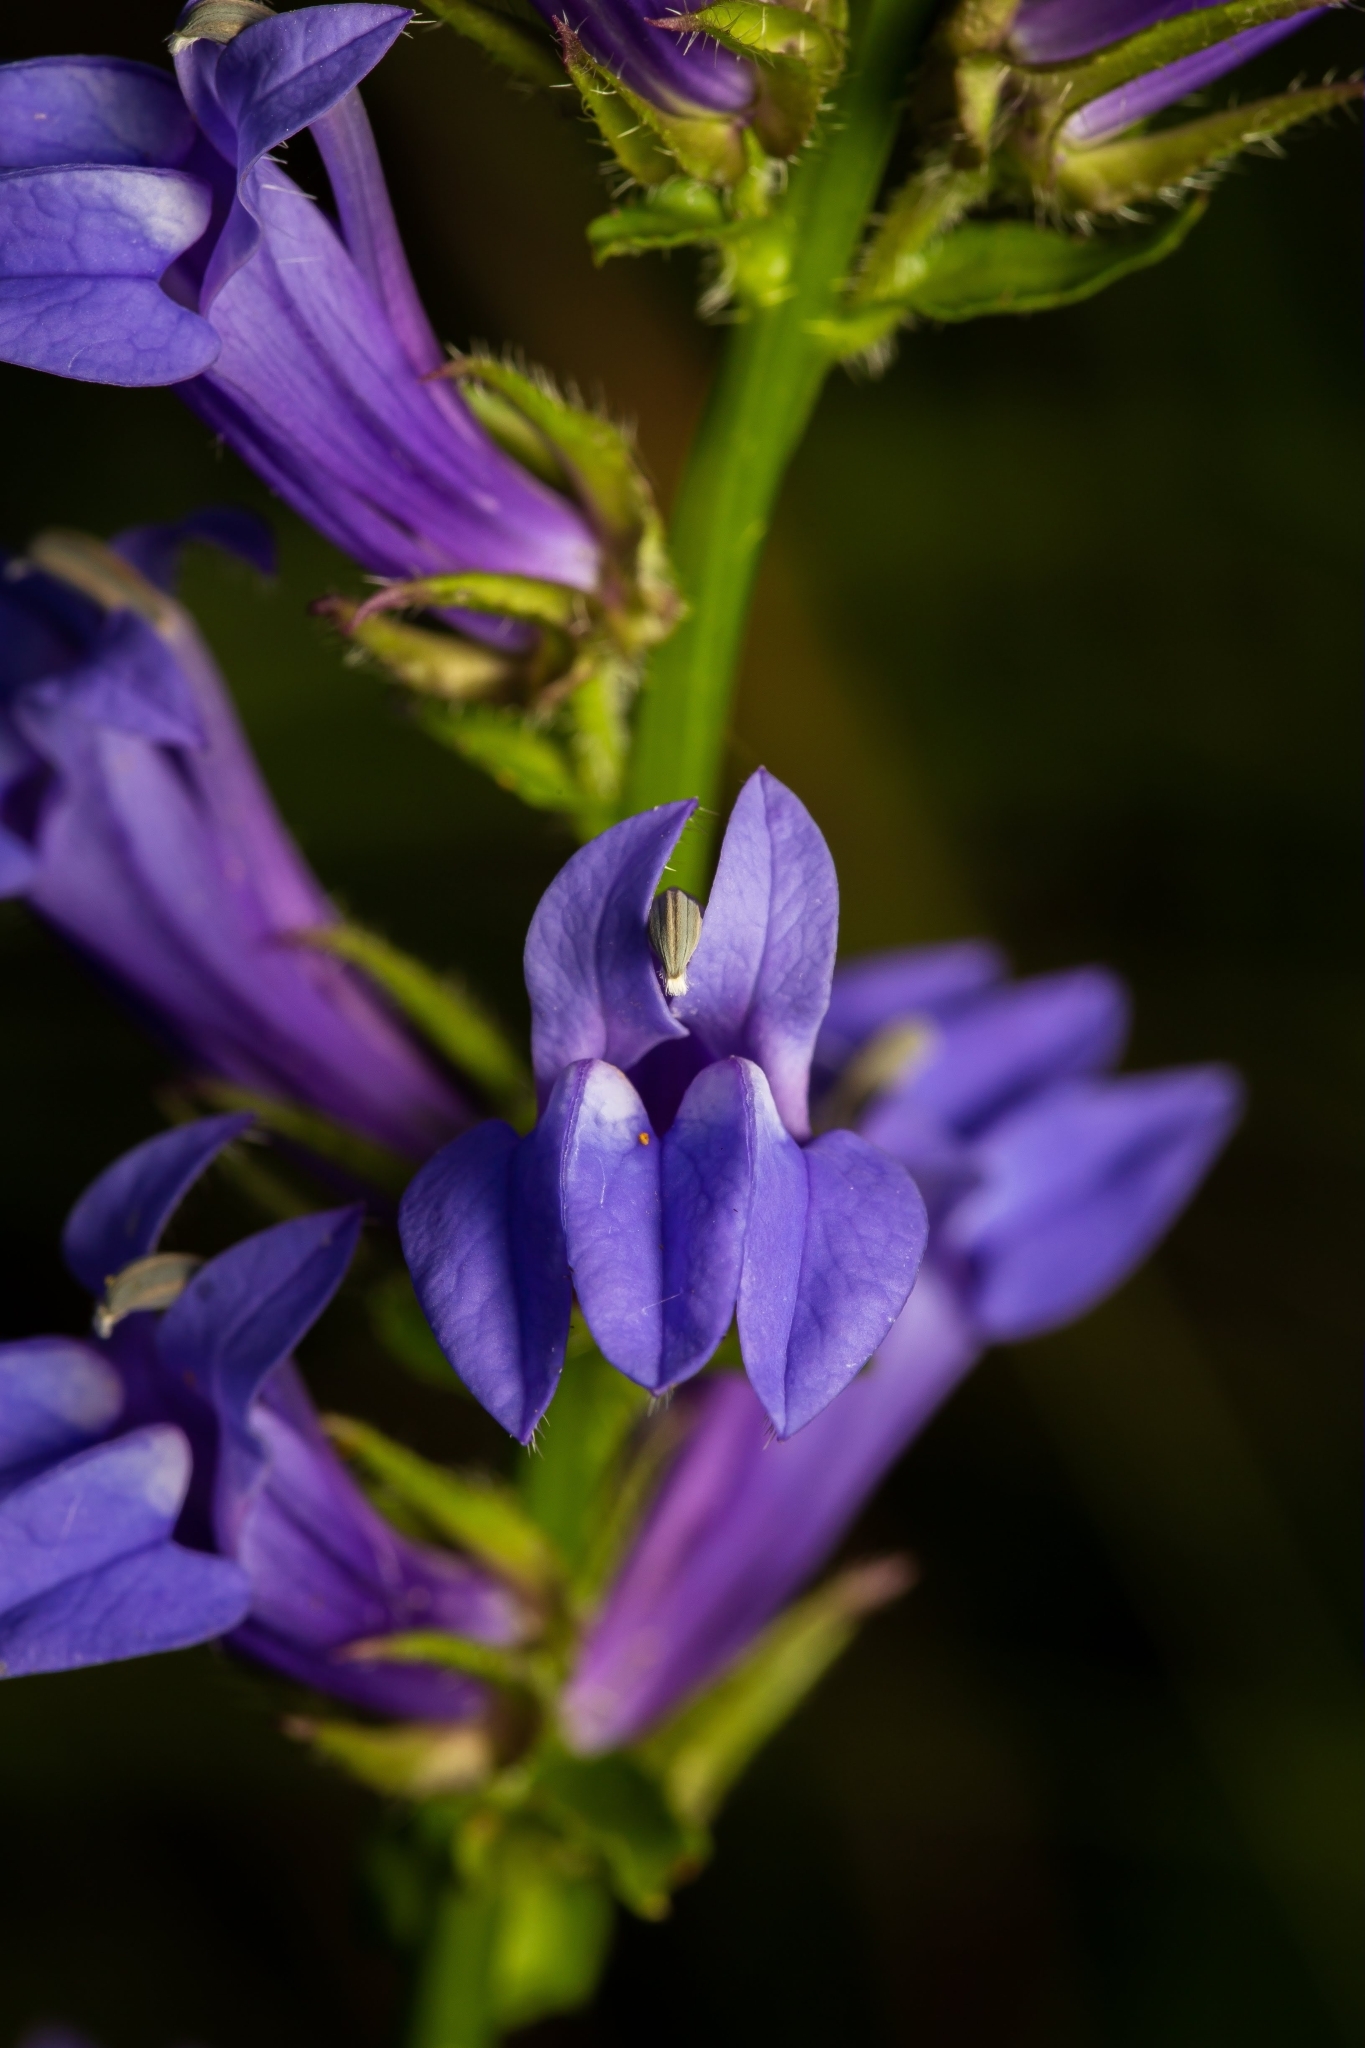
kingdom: Plantae
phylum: Tracheophyta
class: Magnoliopsida
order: Asterales
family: Campanulaceae
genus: Lobelia
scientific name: Lobelia siphilitica
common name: Great lobelia
